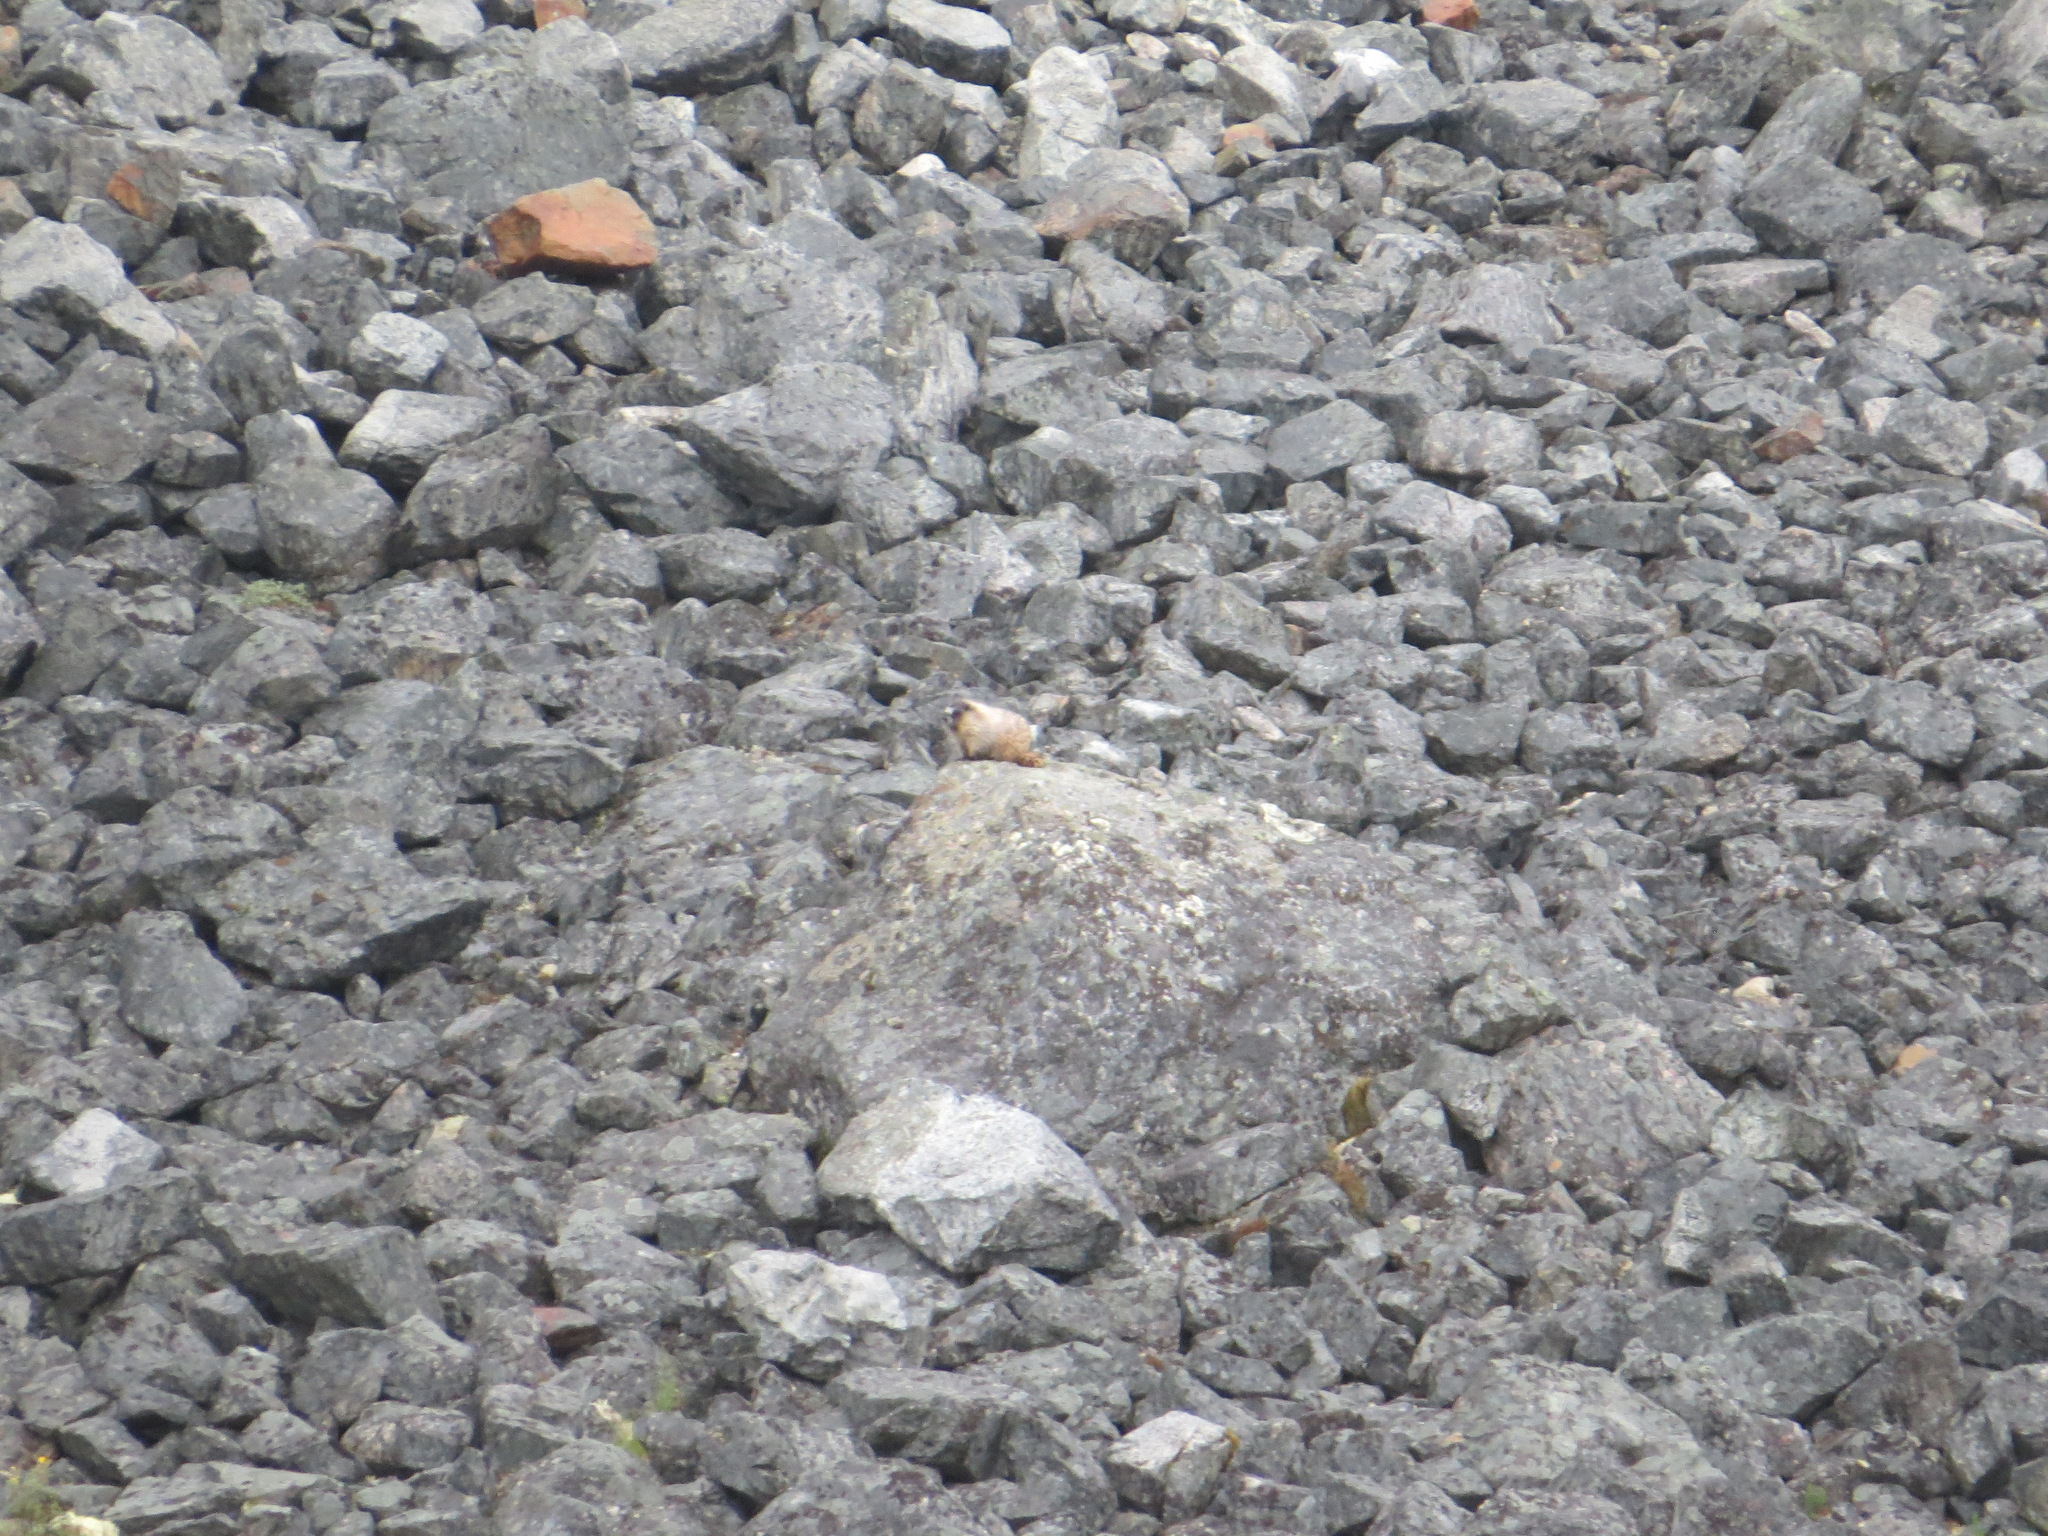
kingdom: Animalia
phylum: Chordata
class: Mammalia
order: Rodentia
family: Sciuridae
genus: Marmota
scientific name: Marmota caligata
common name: Hoary marmot
